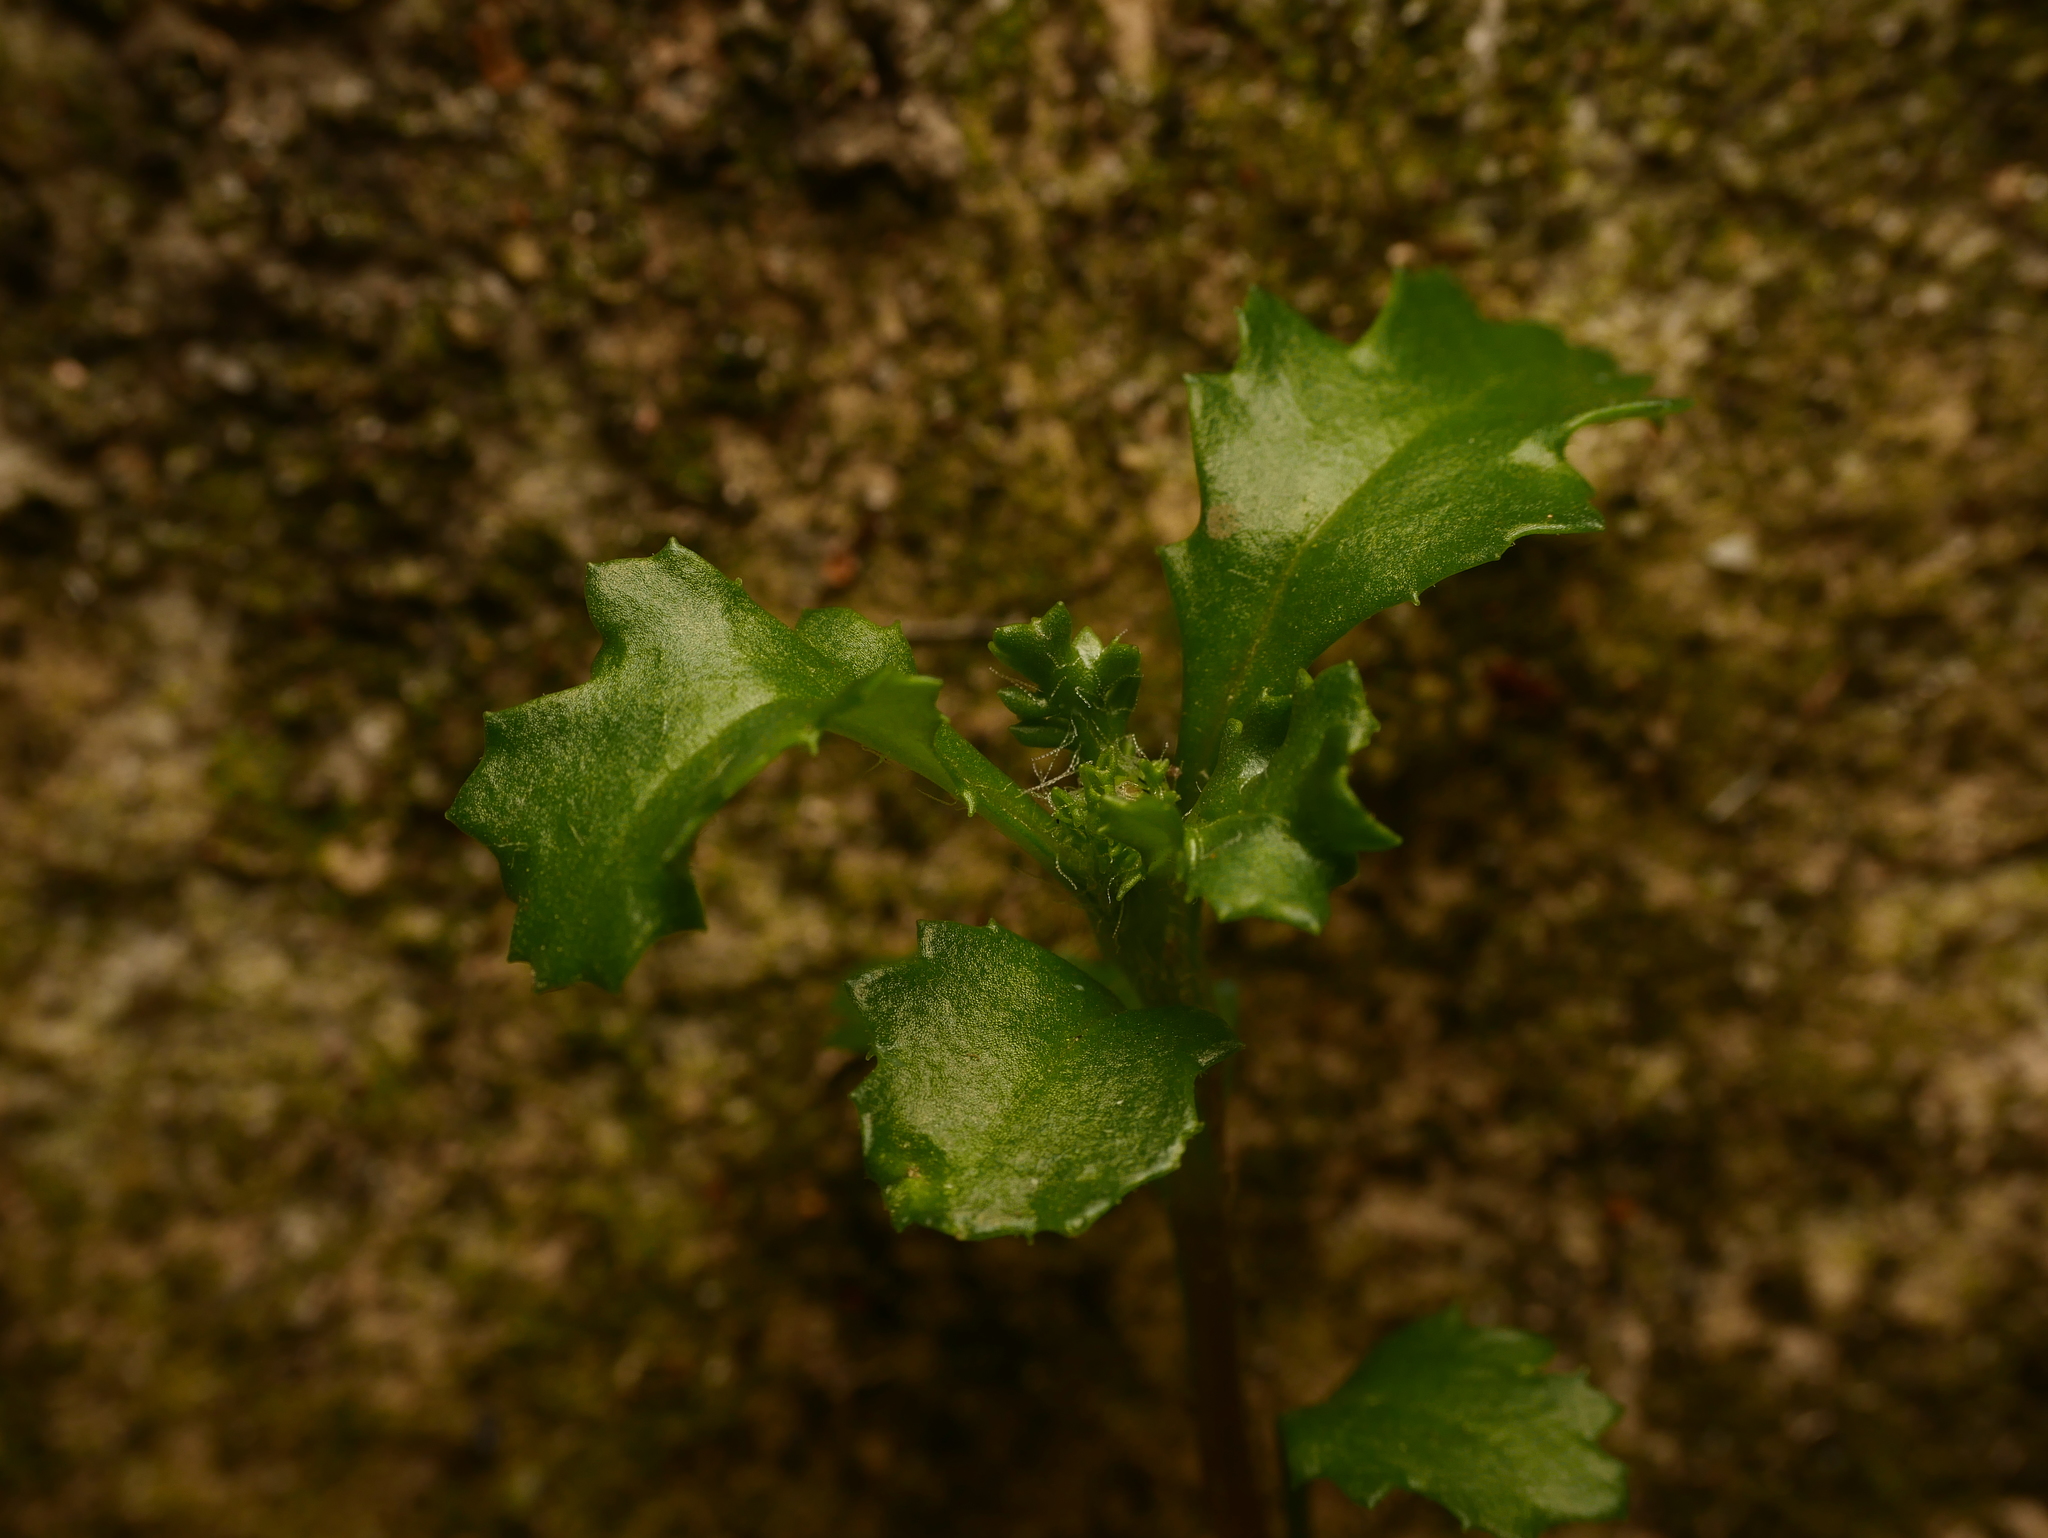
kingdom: Plantae
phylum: Tracheophyta
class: Magnoliopsida
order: Asterales
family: Asteraceae
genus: Senecio
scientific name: Senecio vulgaris
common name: Old-man-in-the-spring
